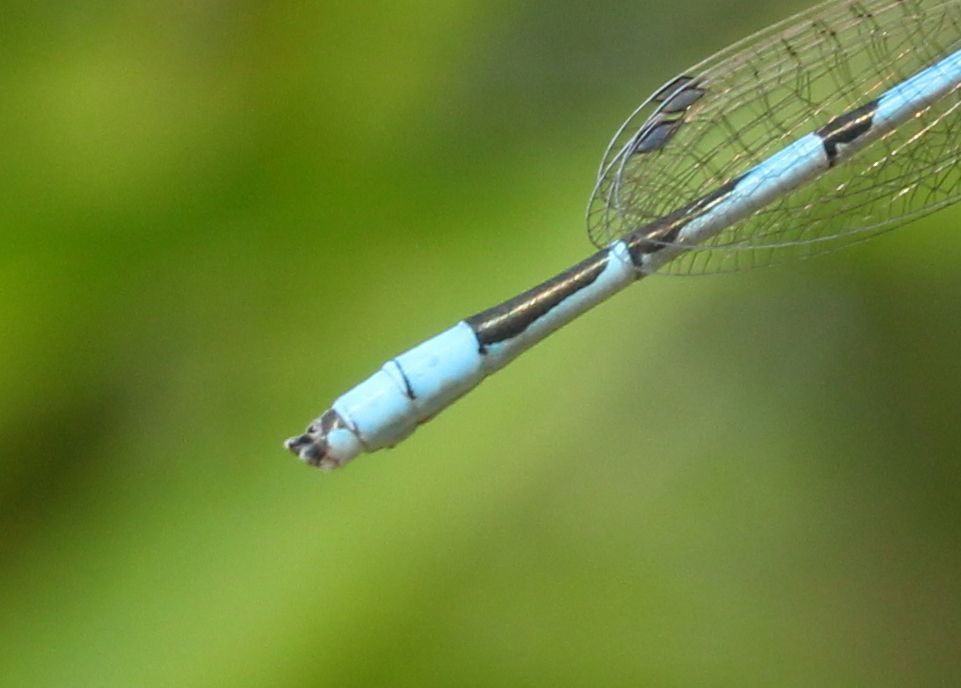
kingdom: Animalia
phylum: Arthropoda
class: Insecta
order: Odonata
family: Coenagrionidae
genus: Enallagma
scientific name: Enallagma civile
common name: Damselfly
